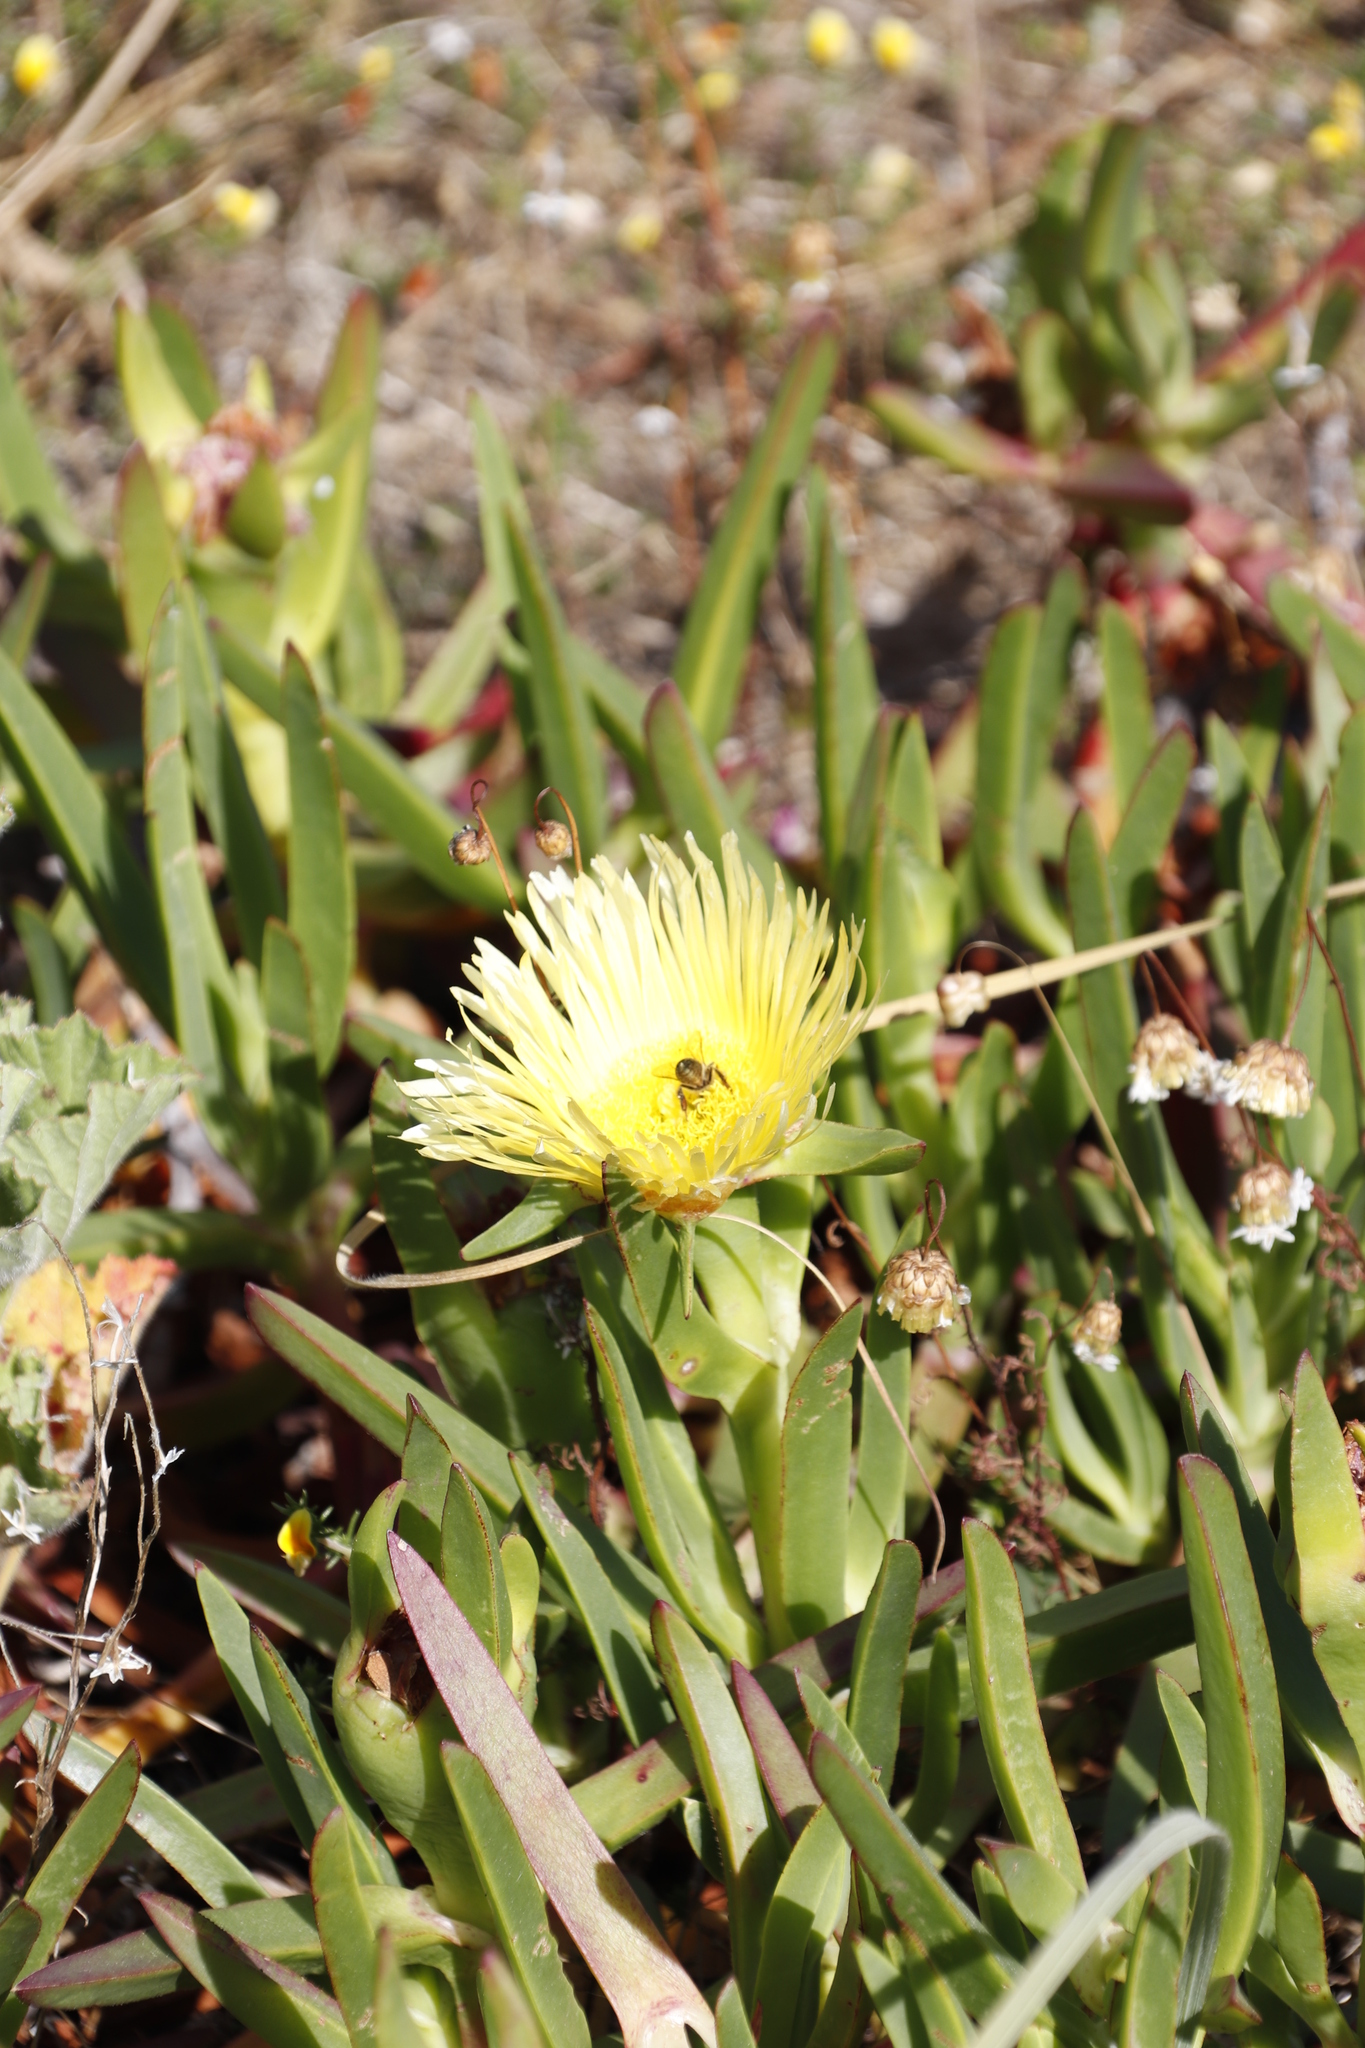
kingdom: Plantae
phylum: Tracheophyta
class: Magnoliopsida
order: Caryophyllales
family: Aizoaceae
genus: Carpobrotus
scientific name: Carpobrotus edulis
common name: Hottentot-fig
